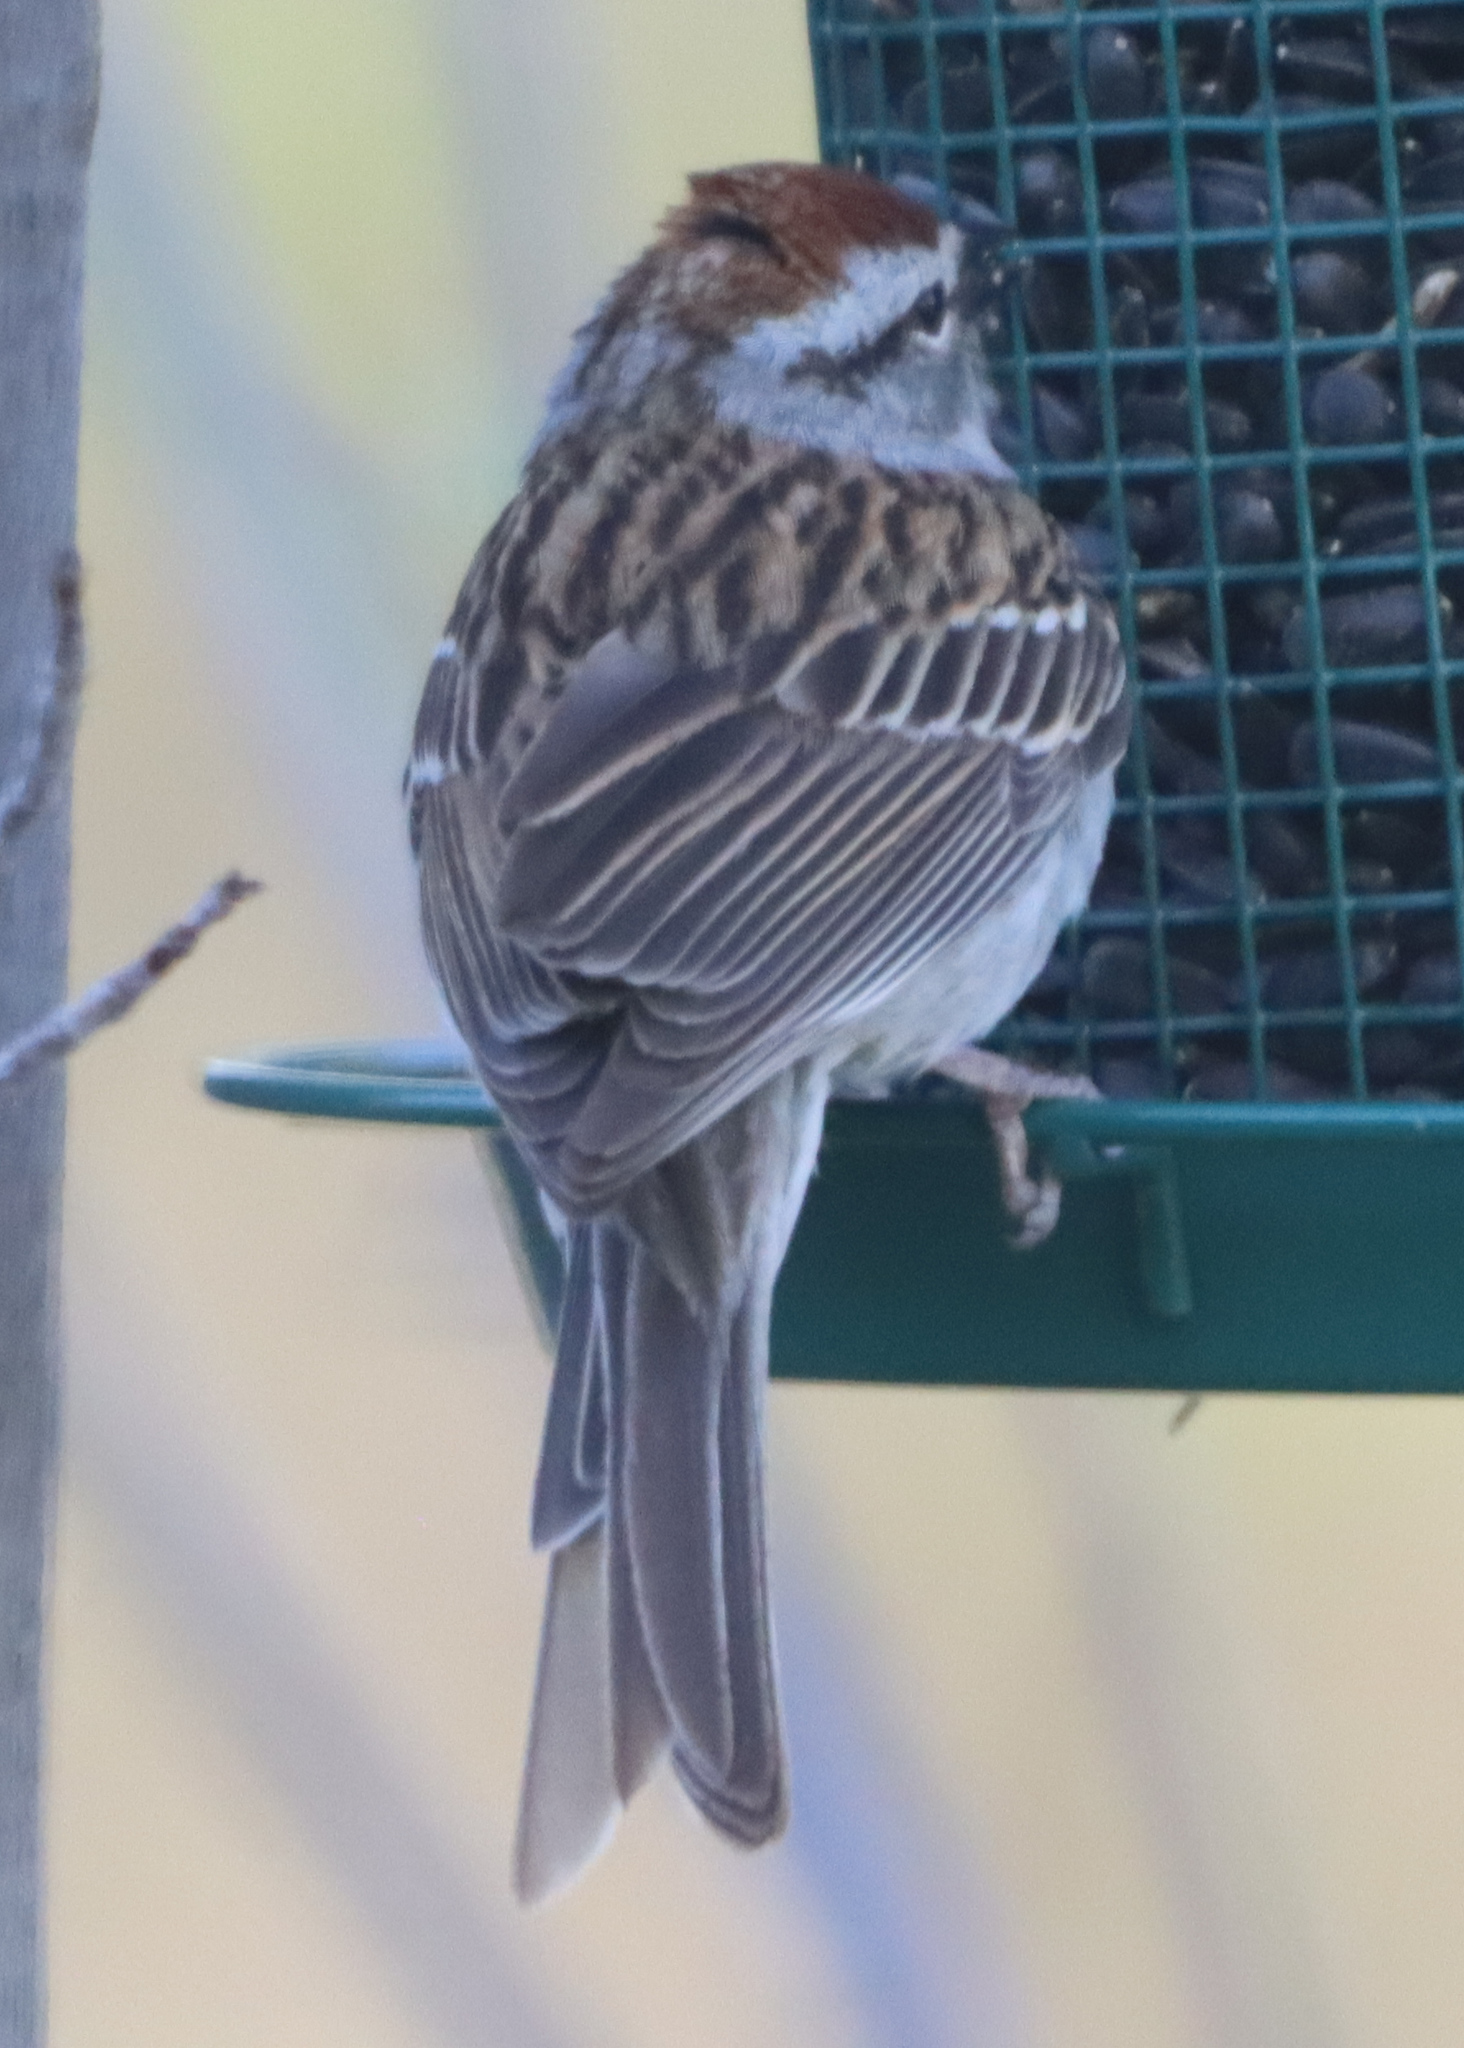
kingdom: Animalia
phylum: Chordata
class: Aves
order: Passeriformes
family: Passerellidae
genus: Spizella
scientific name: Spizella passerina
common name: Chipping sparrow
